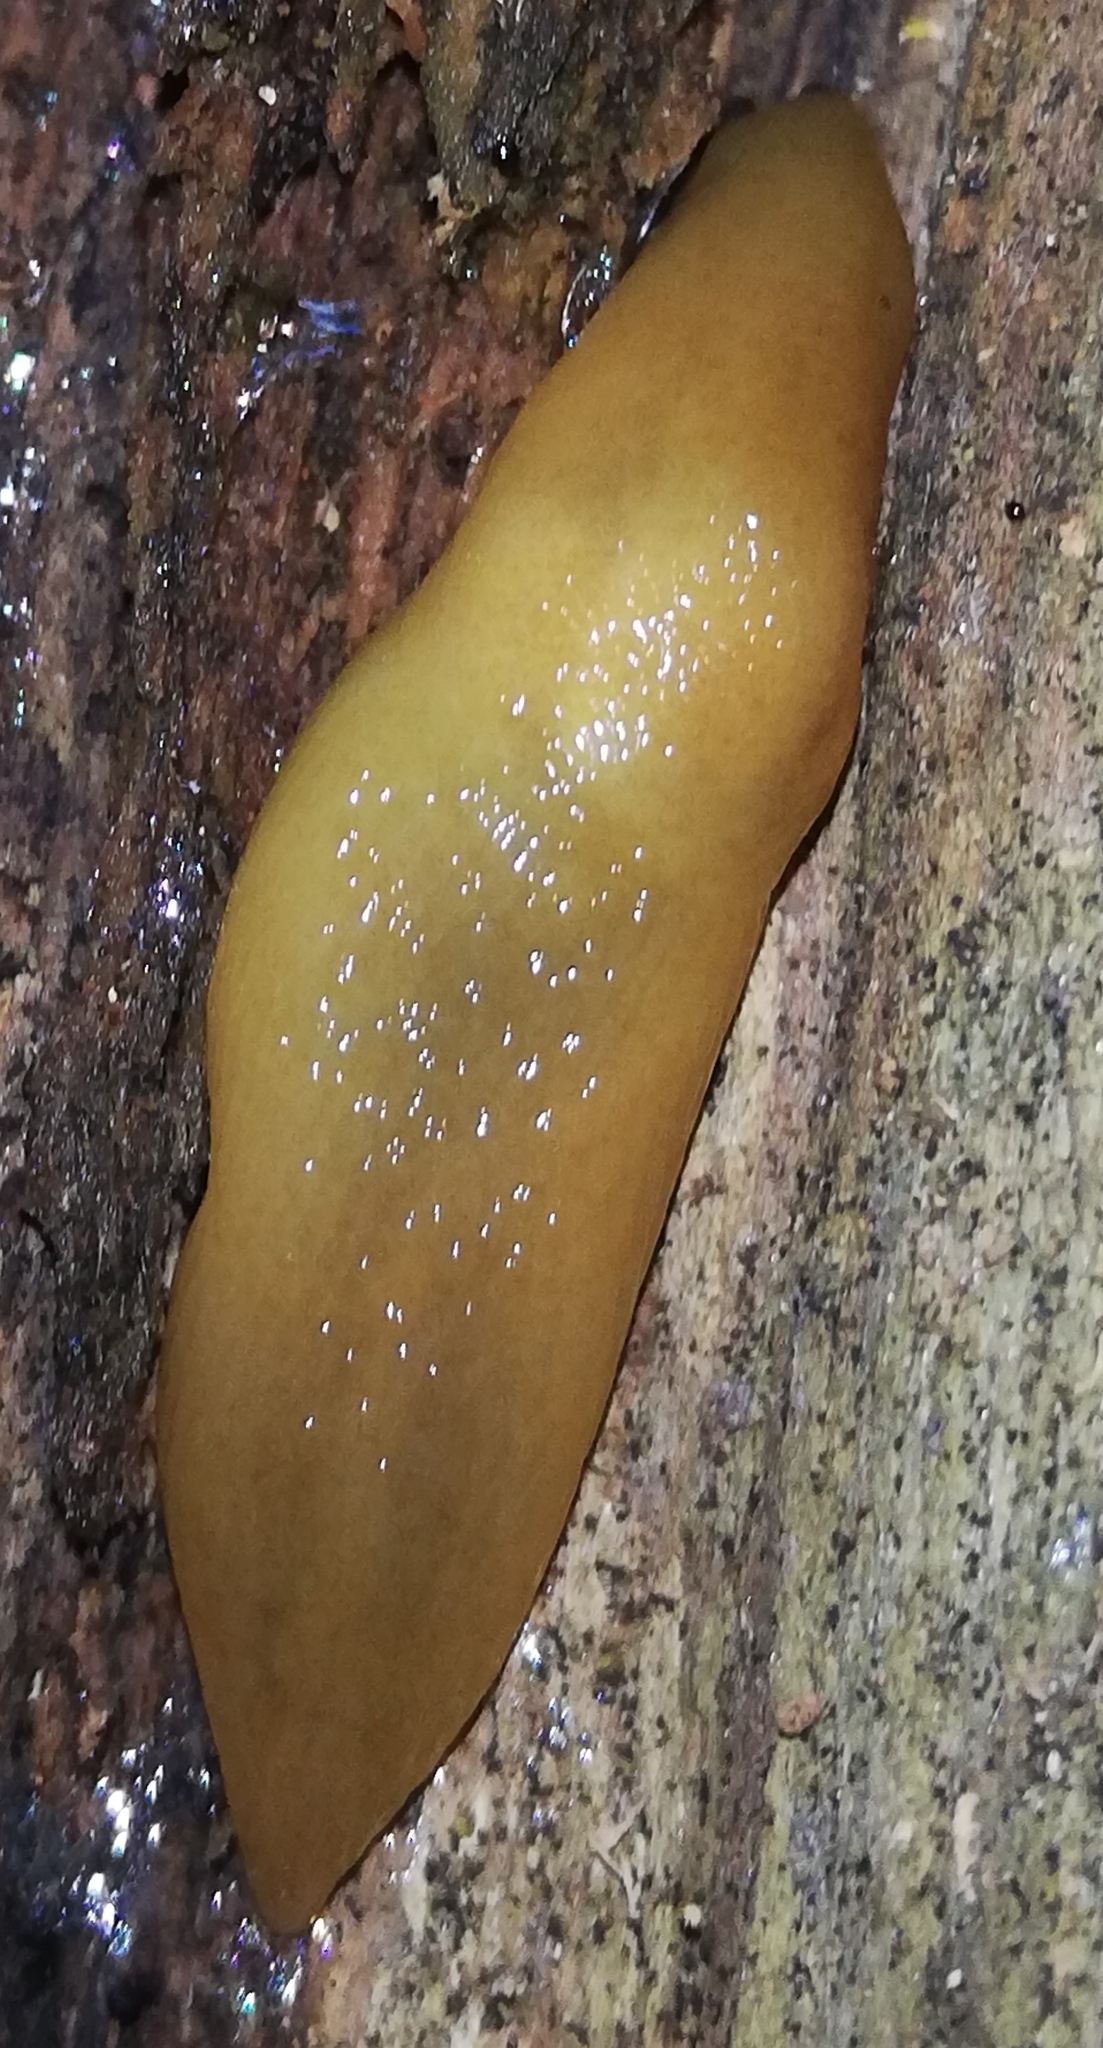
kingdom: Animalia
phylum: Mollusca
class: Gastropoda
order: Stylommatophora
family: Limacidae
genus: Malacolimax
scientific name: Malacolimax tenellus
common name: Lemon slug
